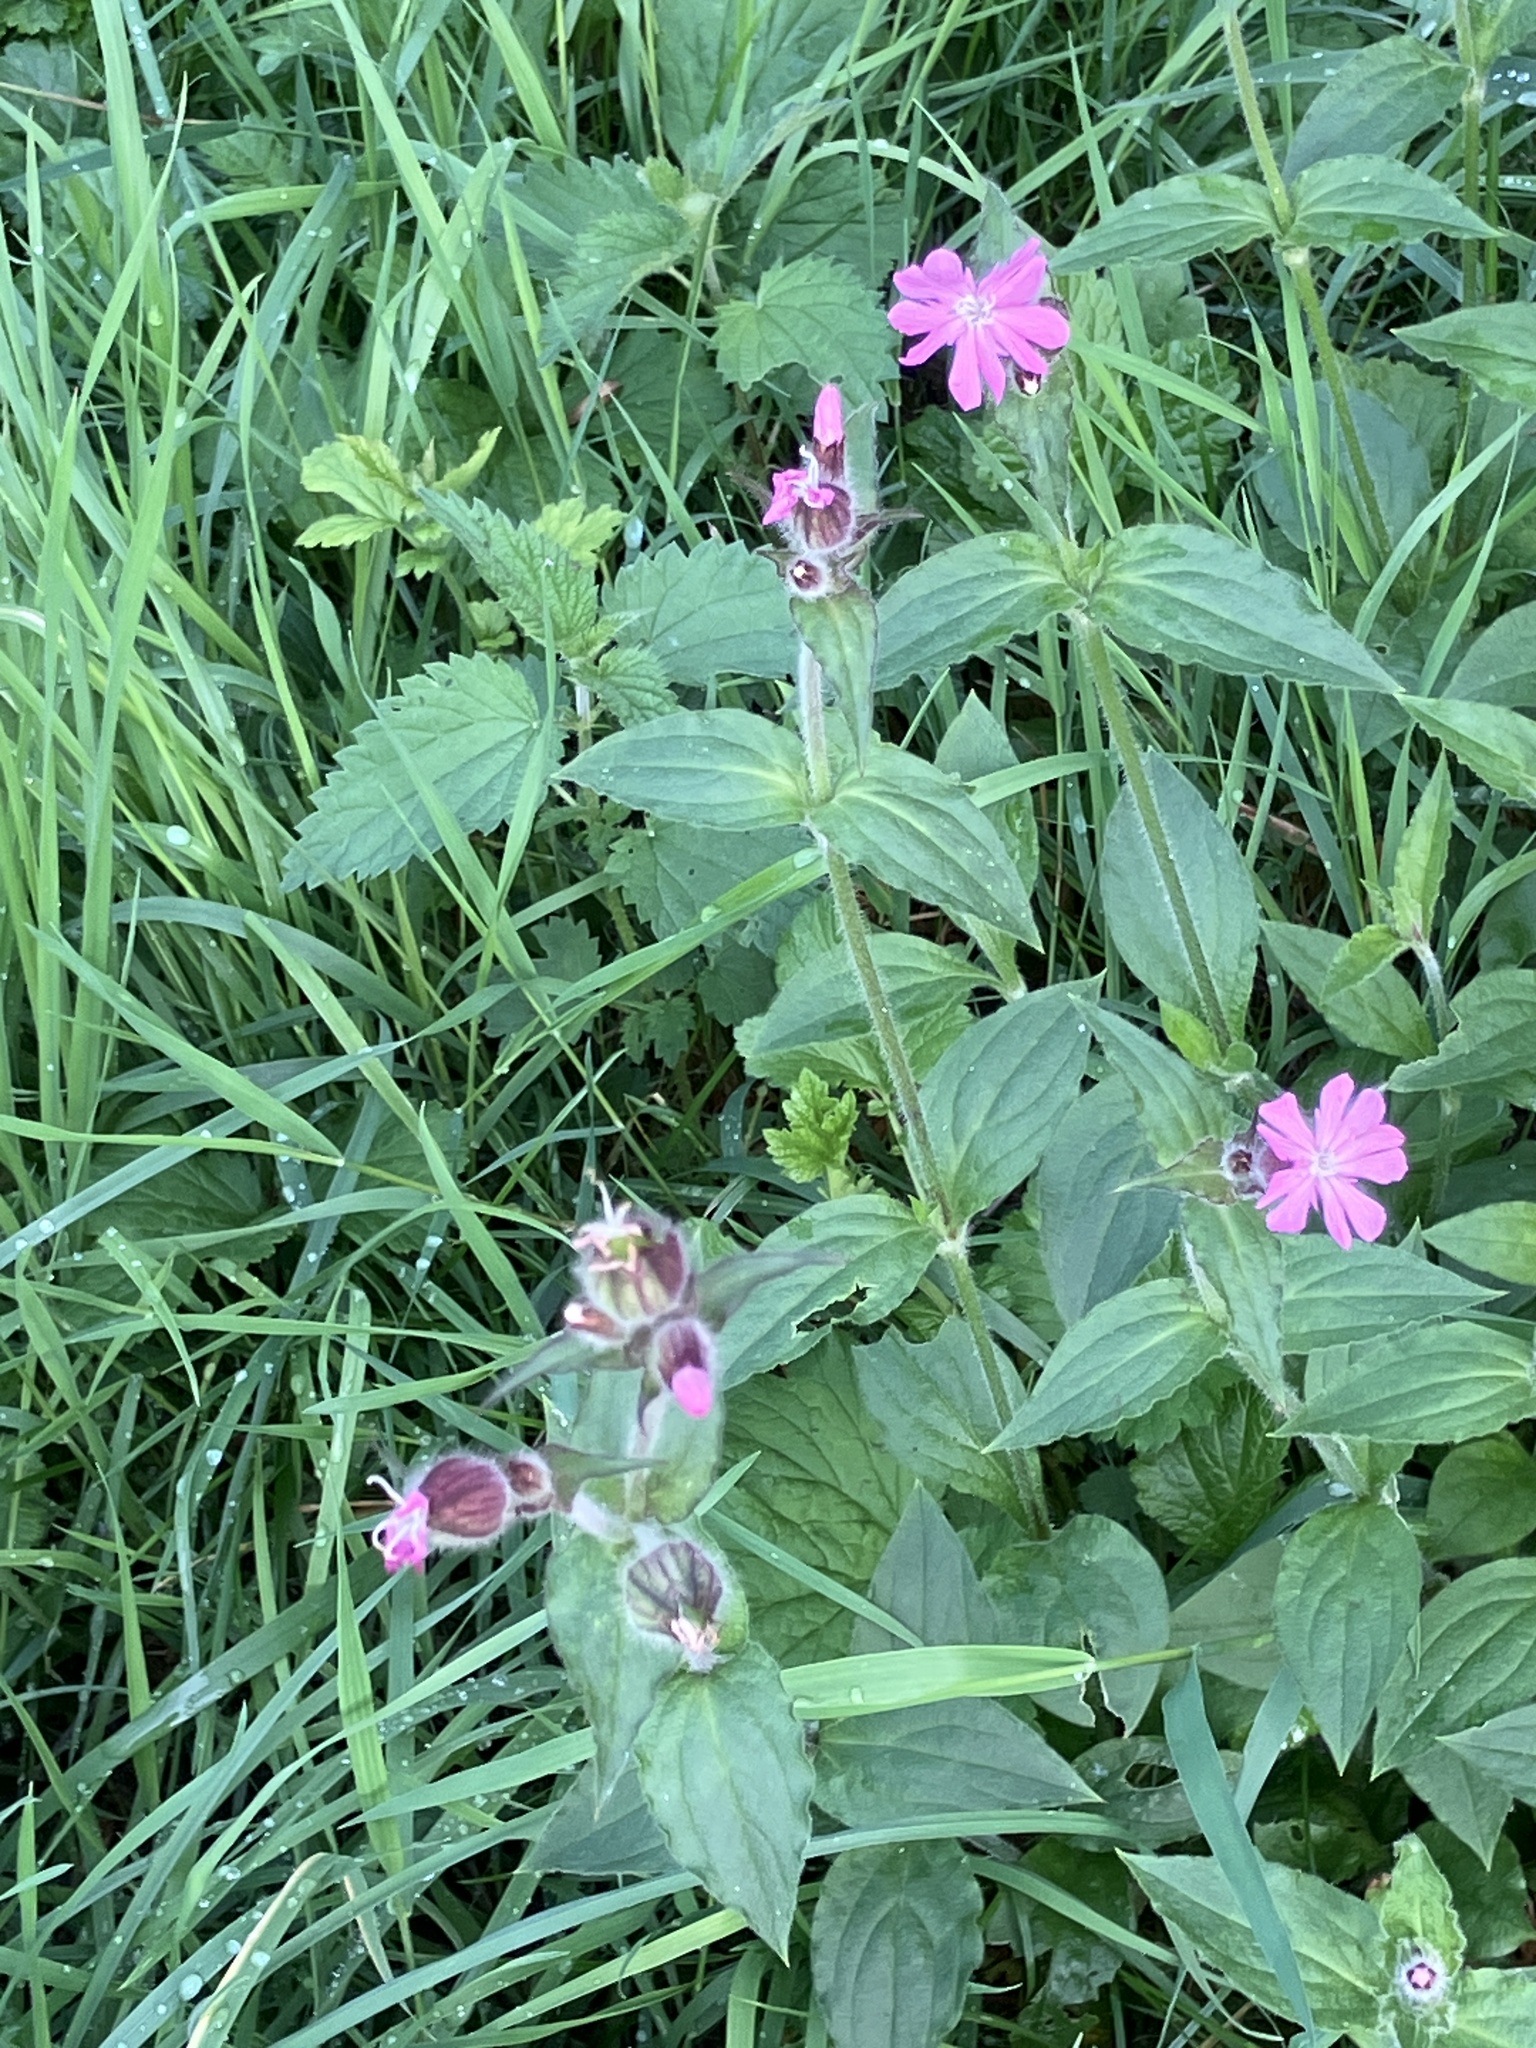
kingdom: Plantae
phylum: Tracheophyta
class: Magnoliopsida
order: Caryophyllales
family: Caryophyllaceae
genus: Silene
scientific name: Silene dioica
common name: Red campion
